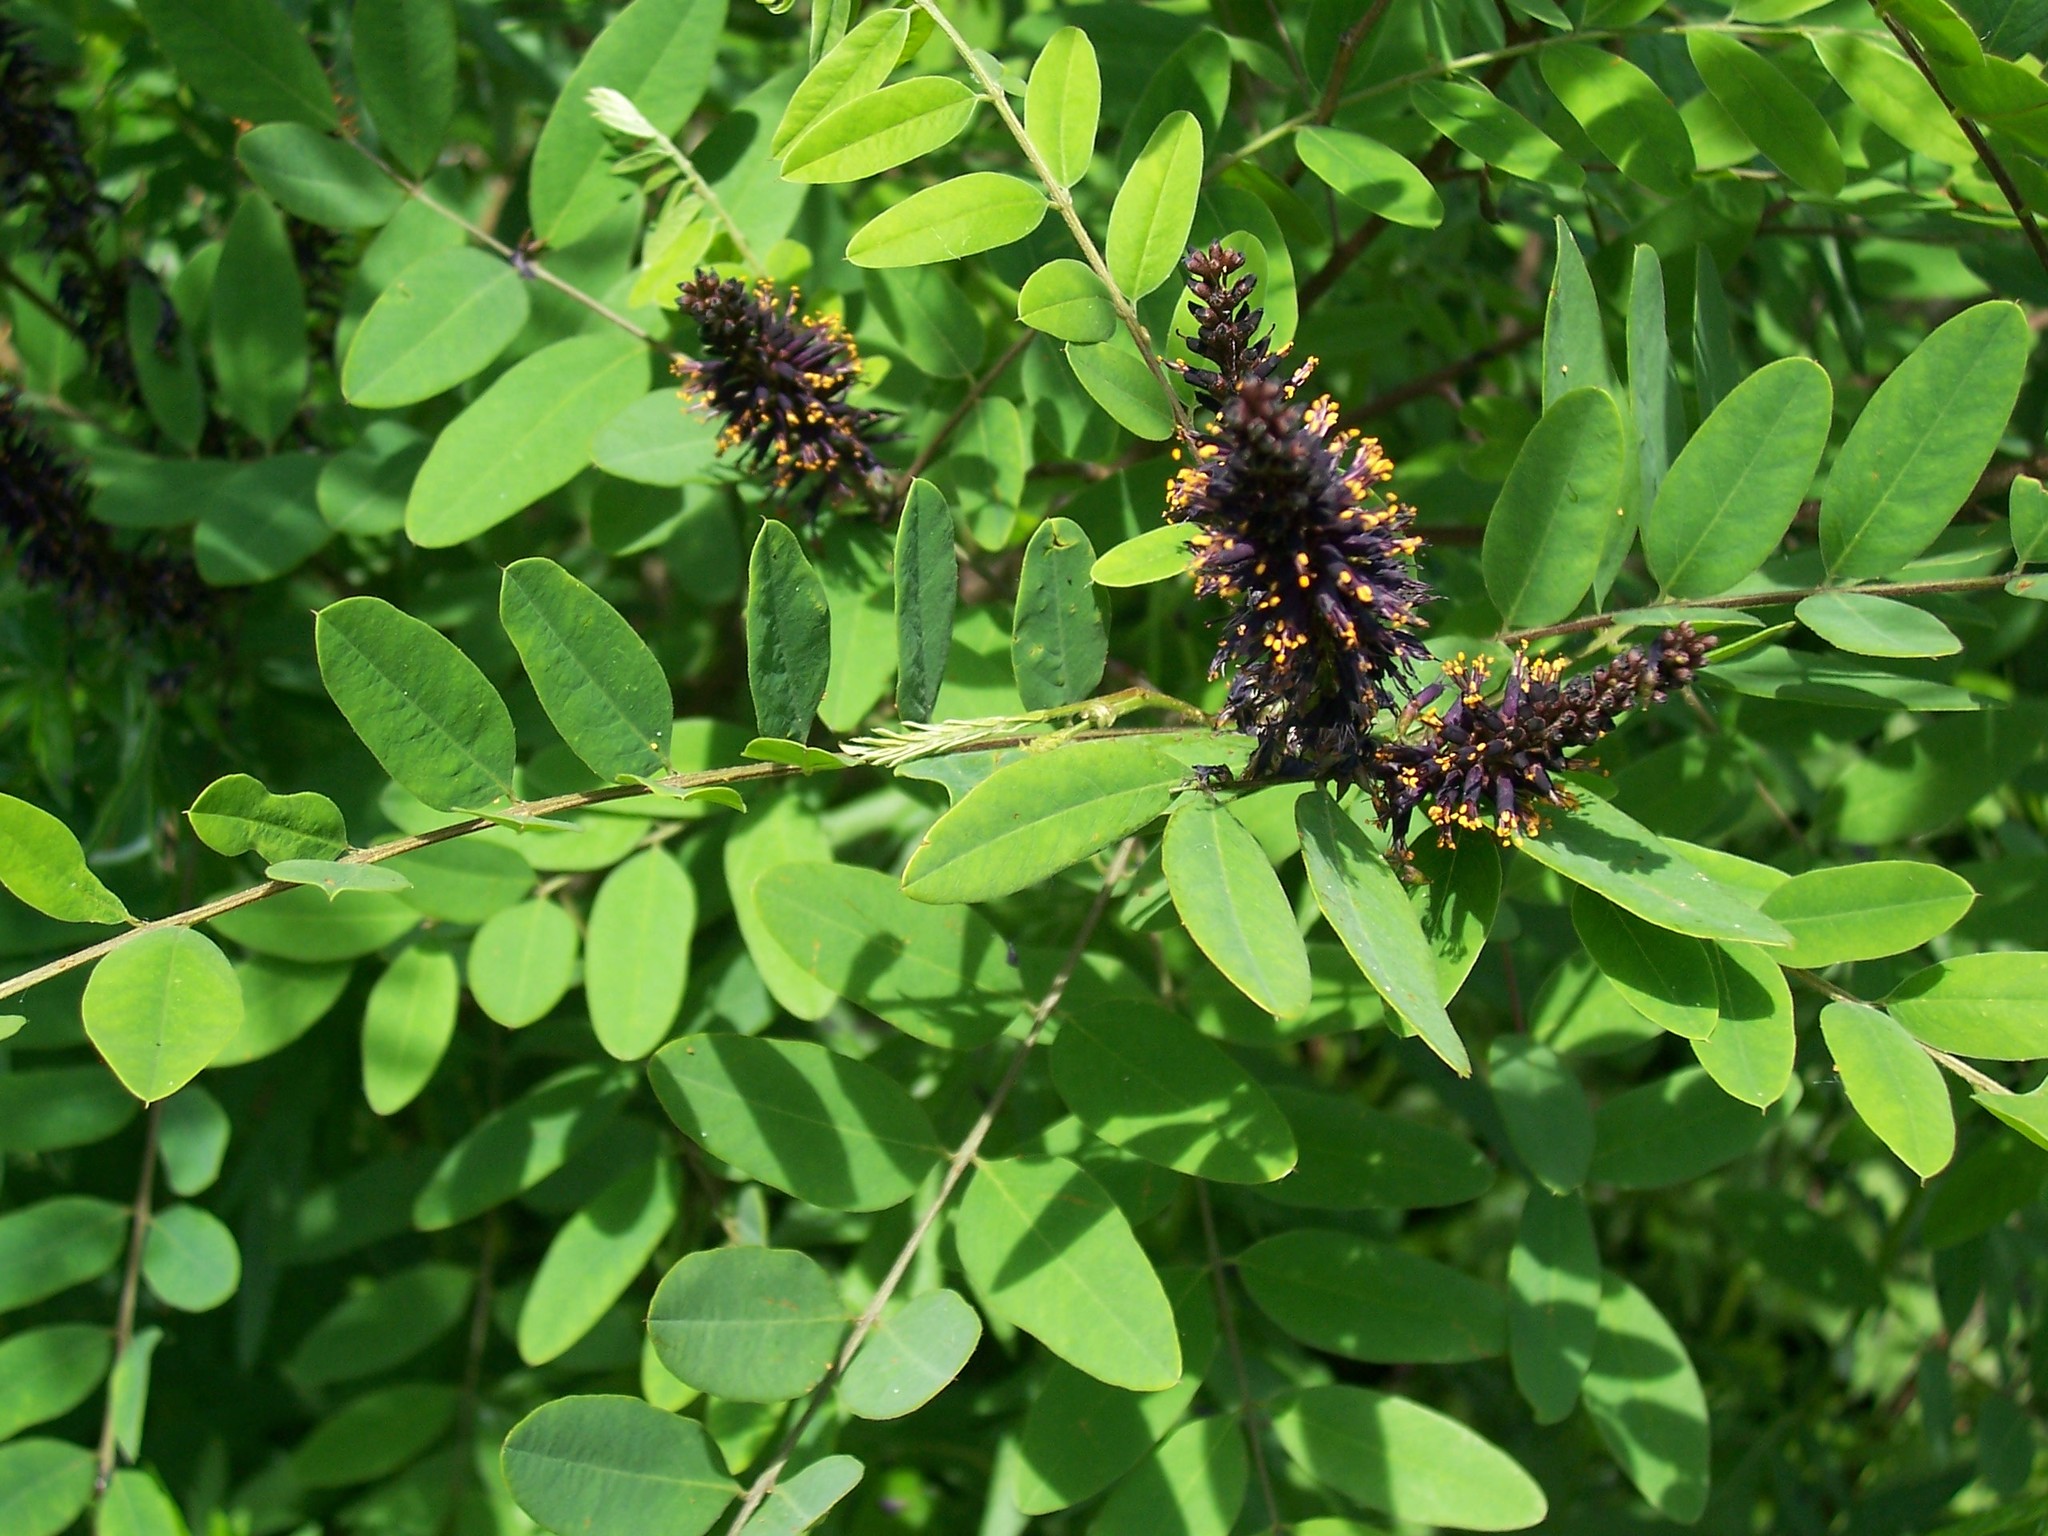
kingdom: Plantae
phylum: Tracheophyta
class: Magnoliopsida
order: Fabales
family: Fabaceae
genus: Amorpha
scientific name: Amorpha fruticosa
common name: False indigo
